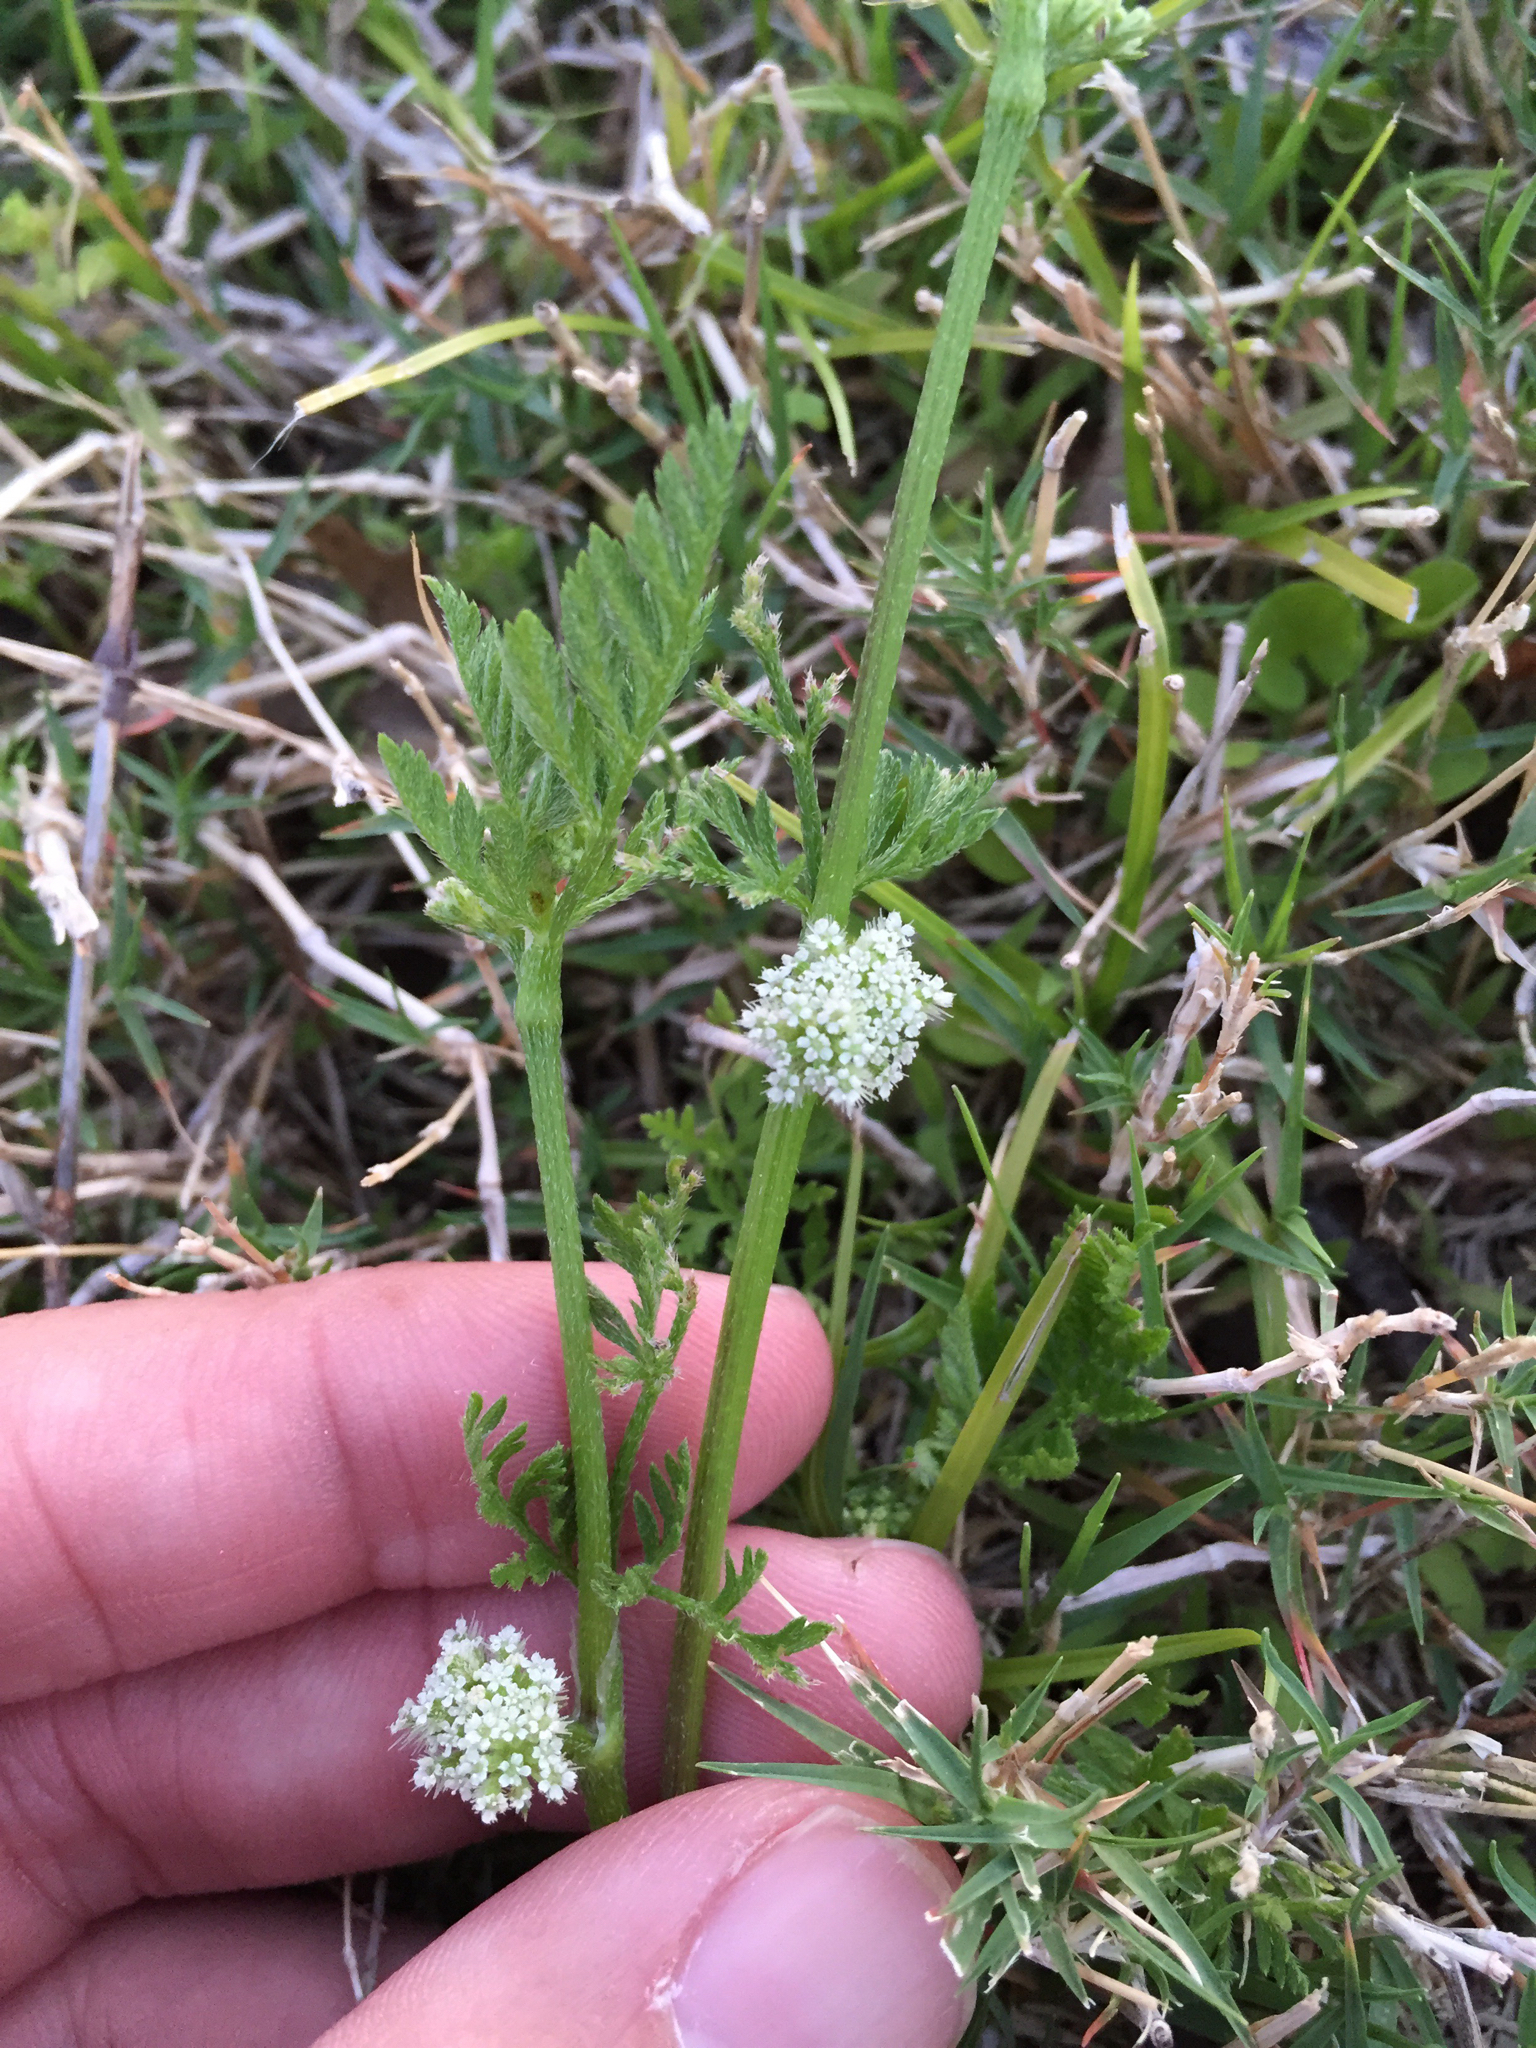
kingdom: Plantae
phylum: Tracheophyta
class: Magnoliopsida
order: Apiales
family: Apiaceae
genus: Torilis
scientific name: Torilis nodosa
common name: Knotted hedge-parsley
